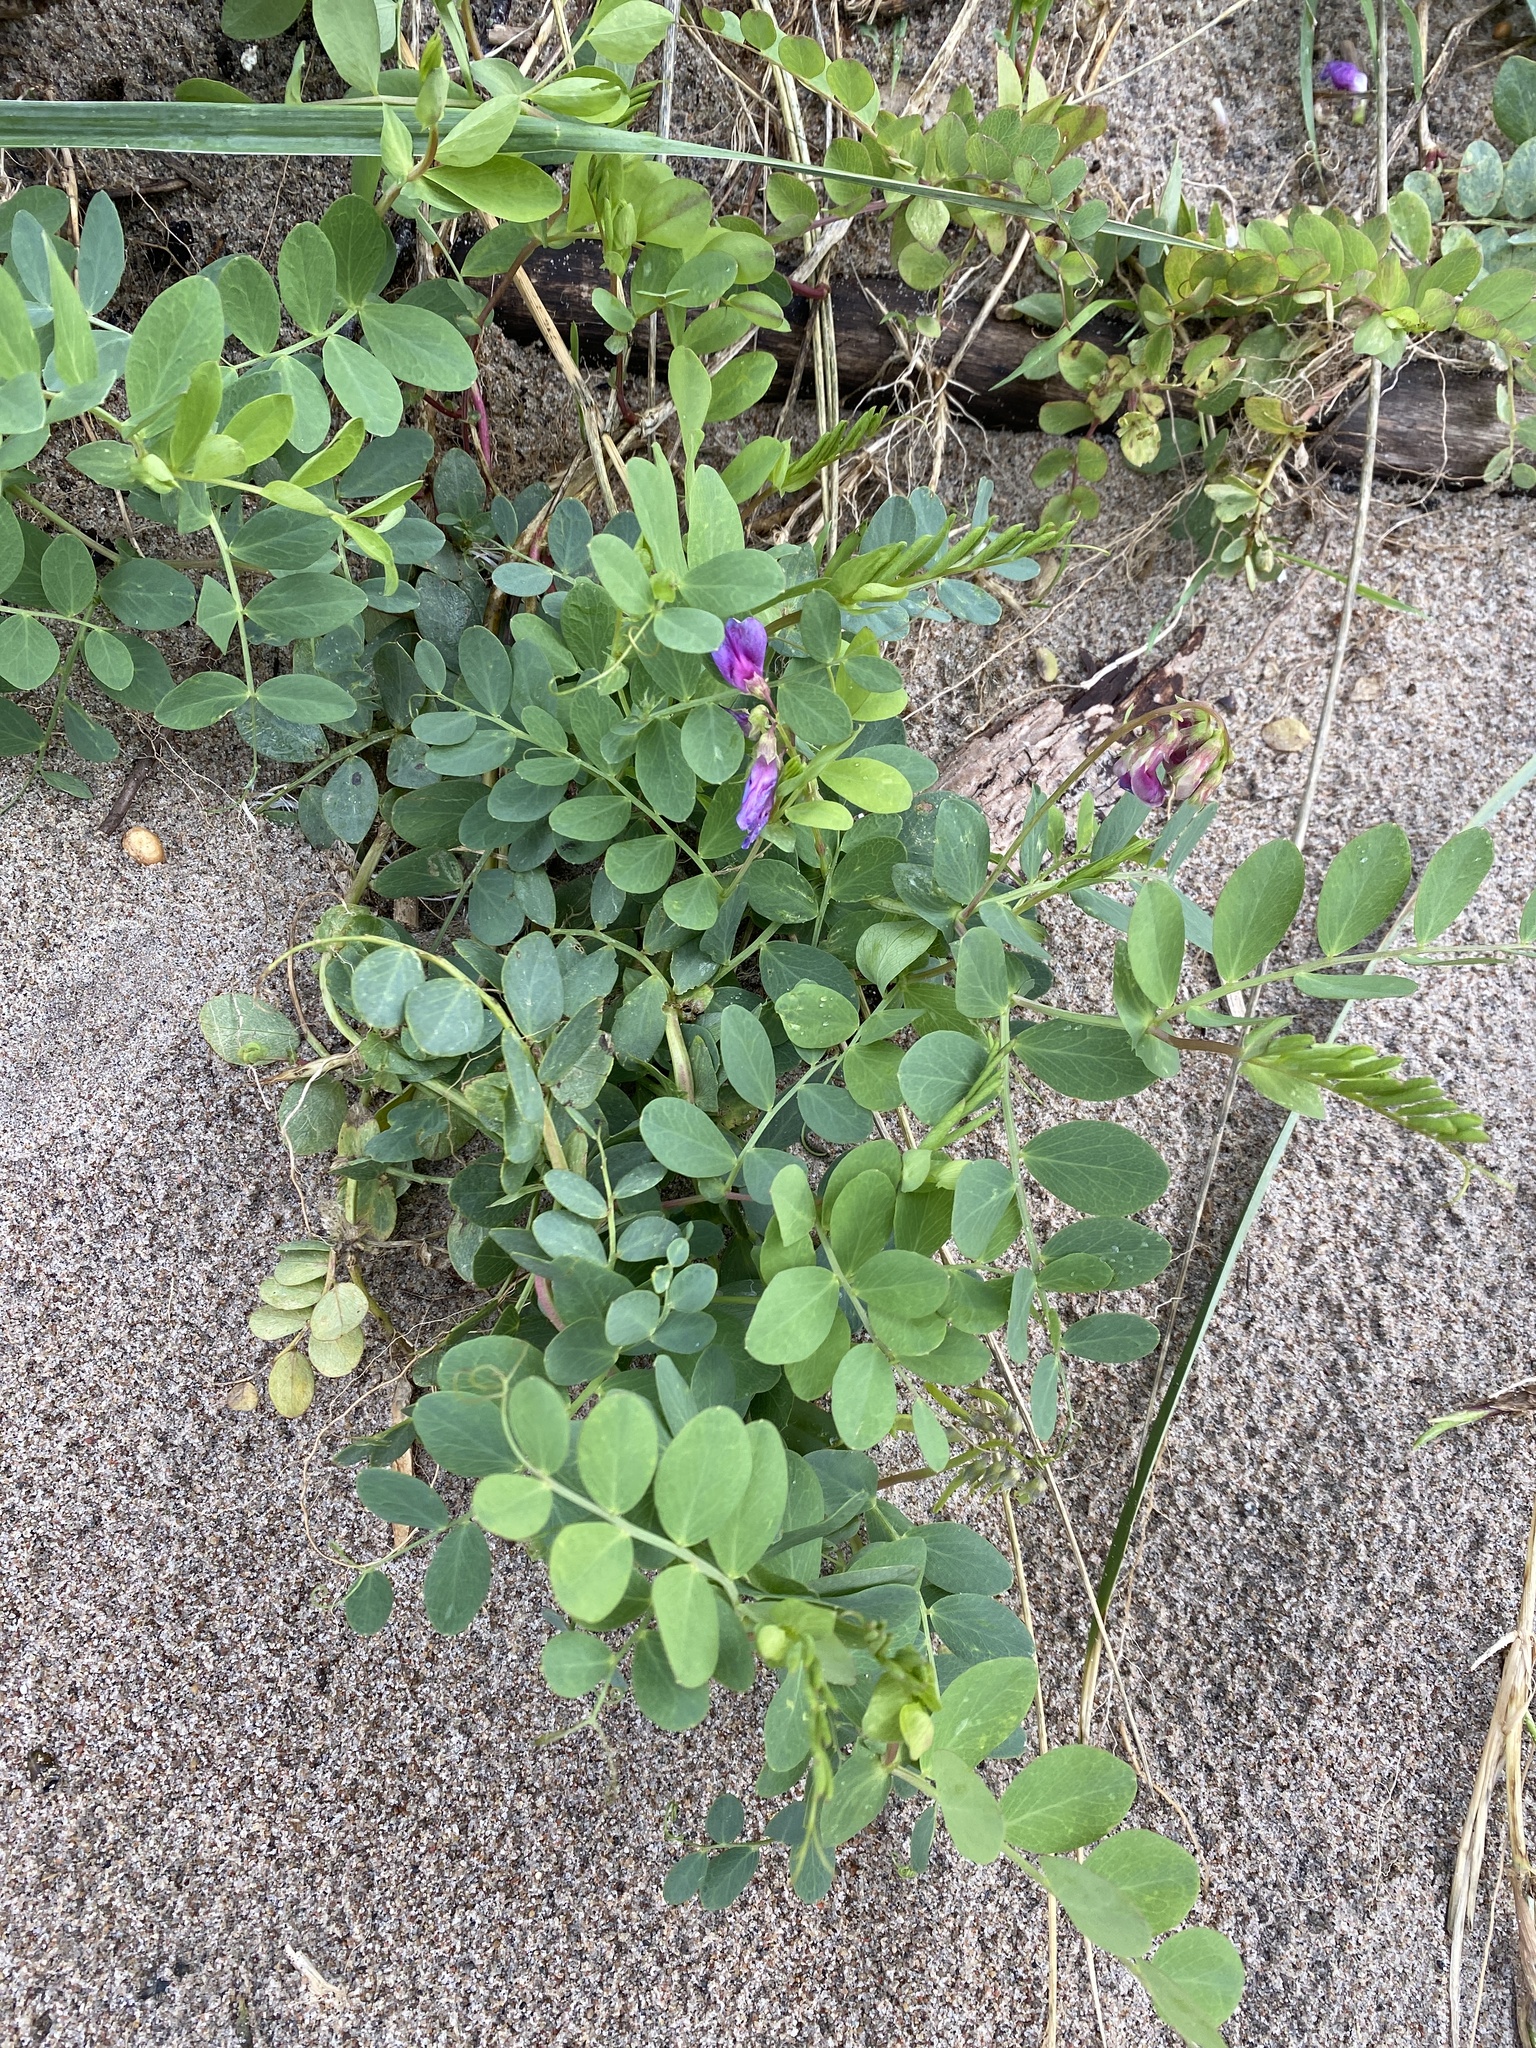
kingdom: Plantae
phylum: Tracheophyta
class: Magnoliopsida
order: Fabales
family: Fabaceae
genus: Lathyrus
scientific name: Lathyrus japonicus
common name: Sea pea
